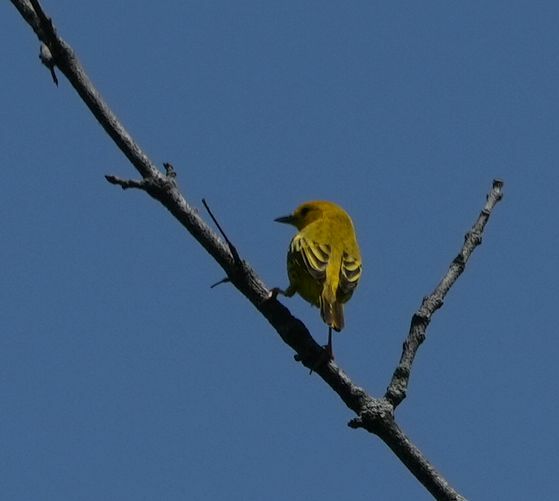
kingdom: Animalia
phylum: Chordata
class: Aves
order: Passeriformes
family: Parulidae
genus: Setophaga
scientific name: Setophaga petechia
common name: Yellow warbler
